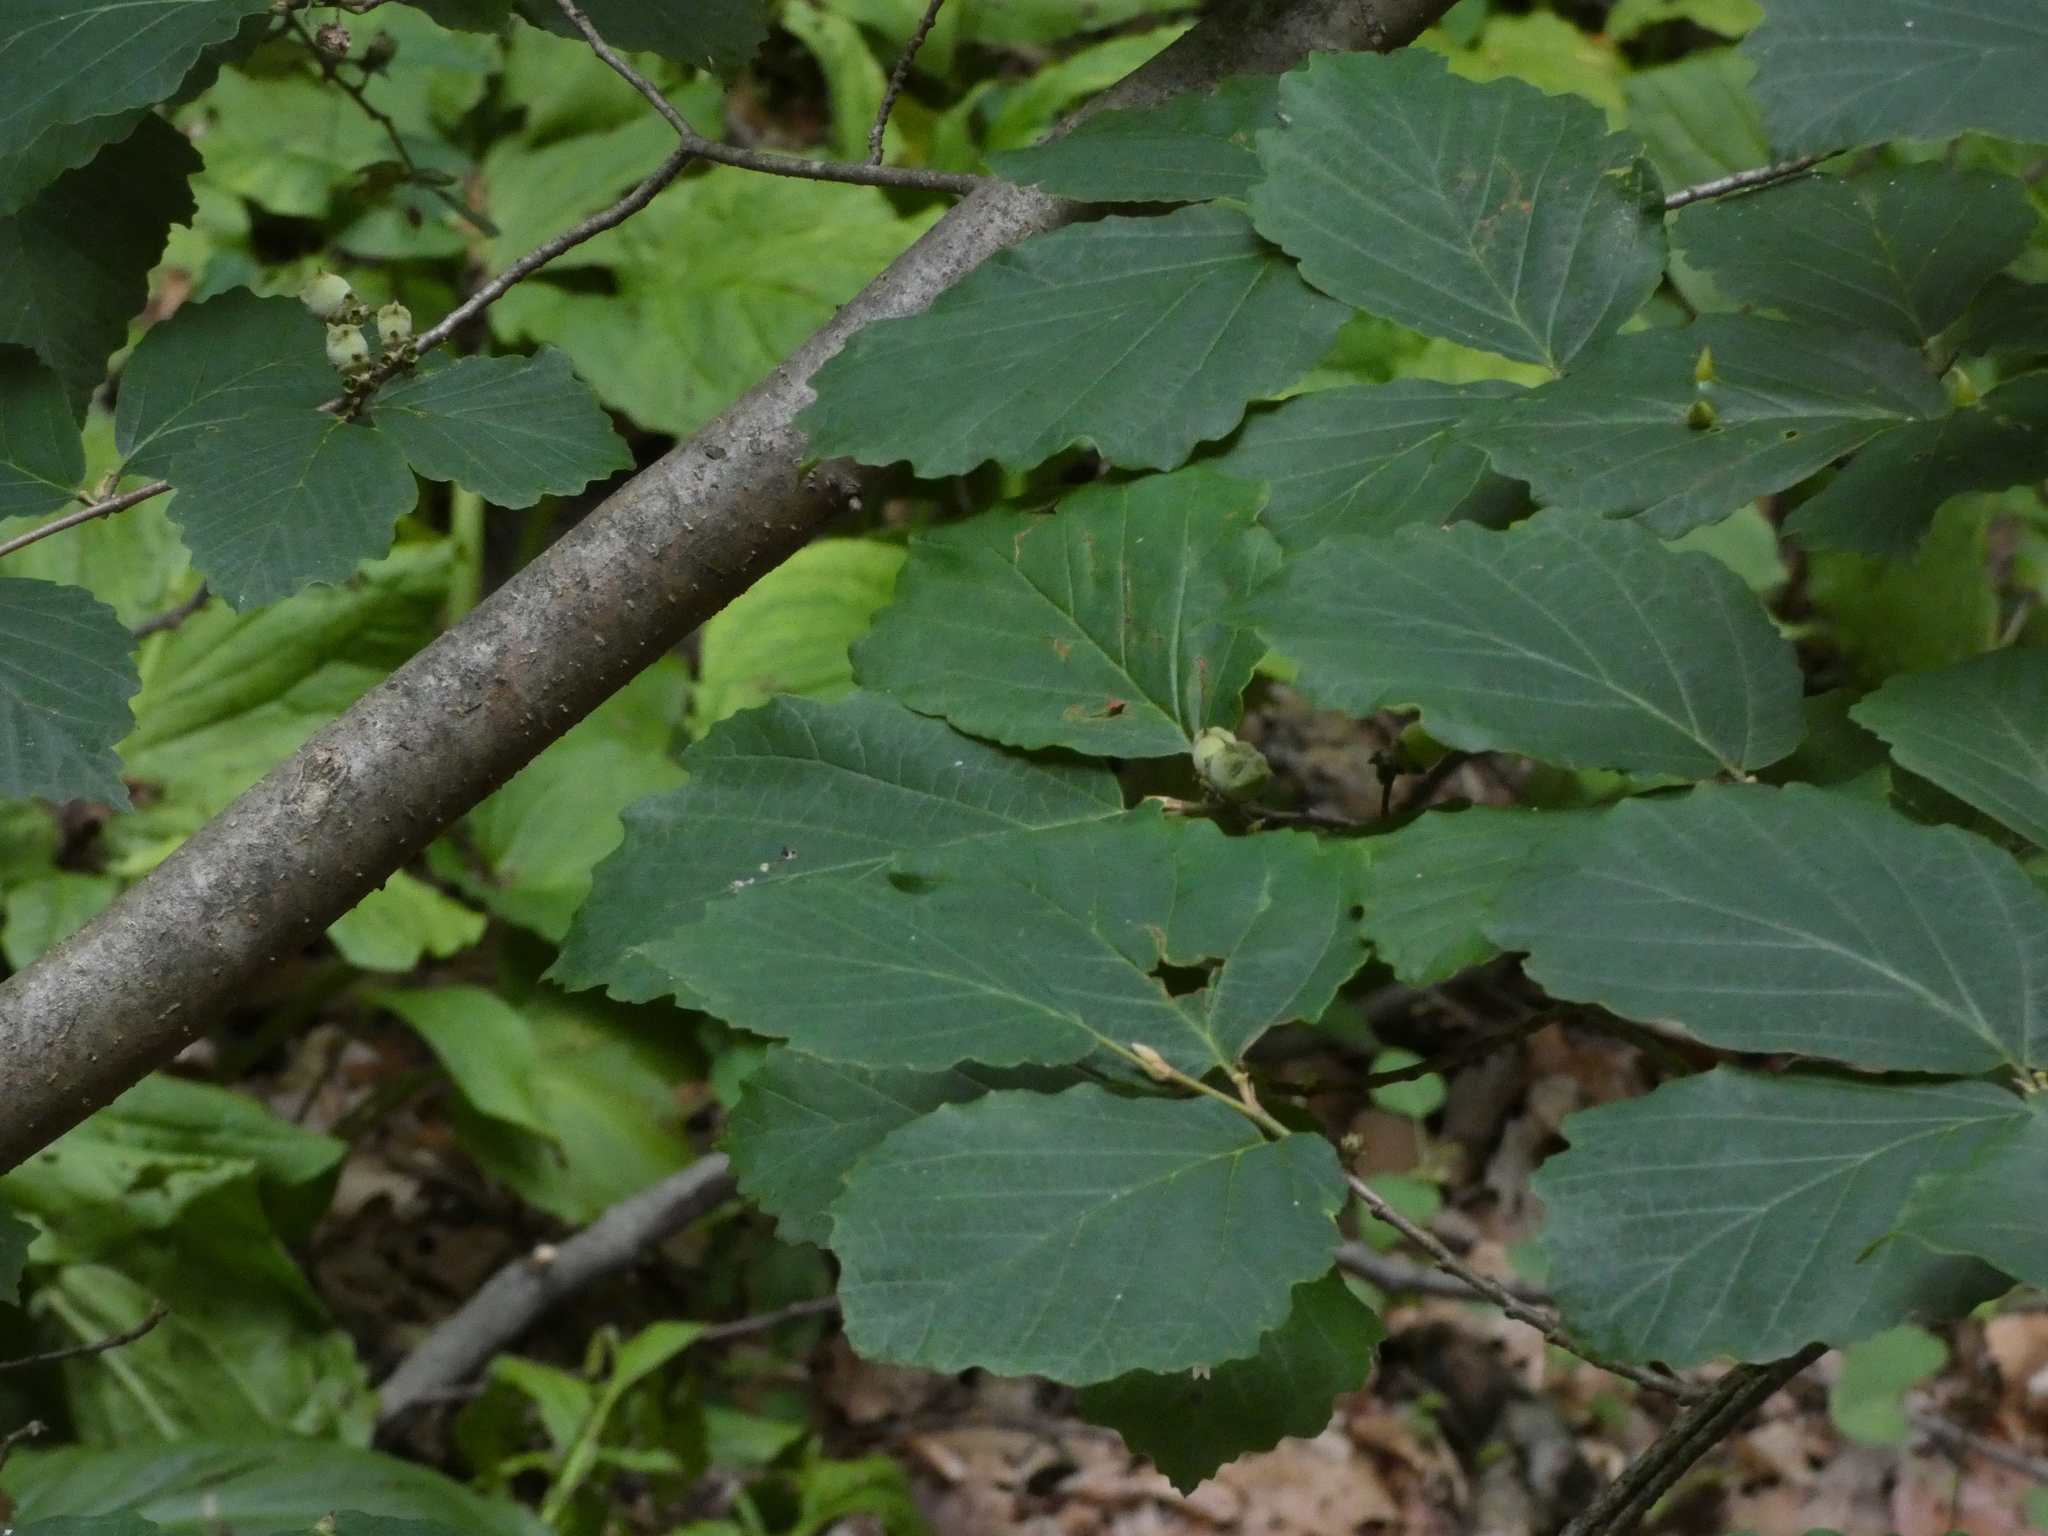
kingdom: Plantae
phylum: Tracheophyta
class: Magnoliopsida
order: Saxifragales
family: Hamamelidaceae
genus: Hamamelis
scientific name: Hamamelis virginiana
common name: Witch-hazel
